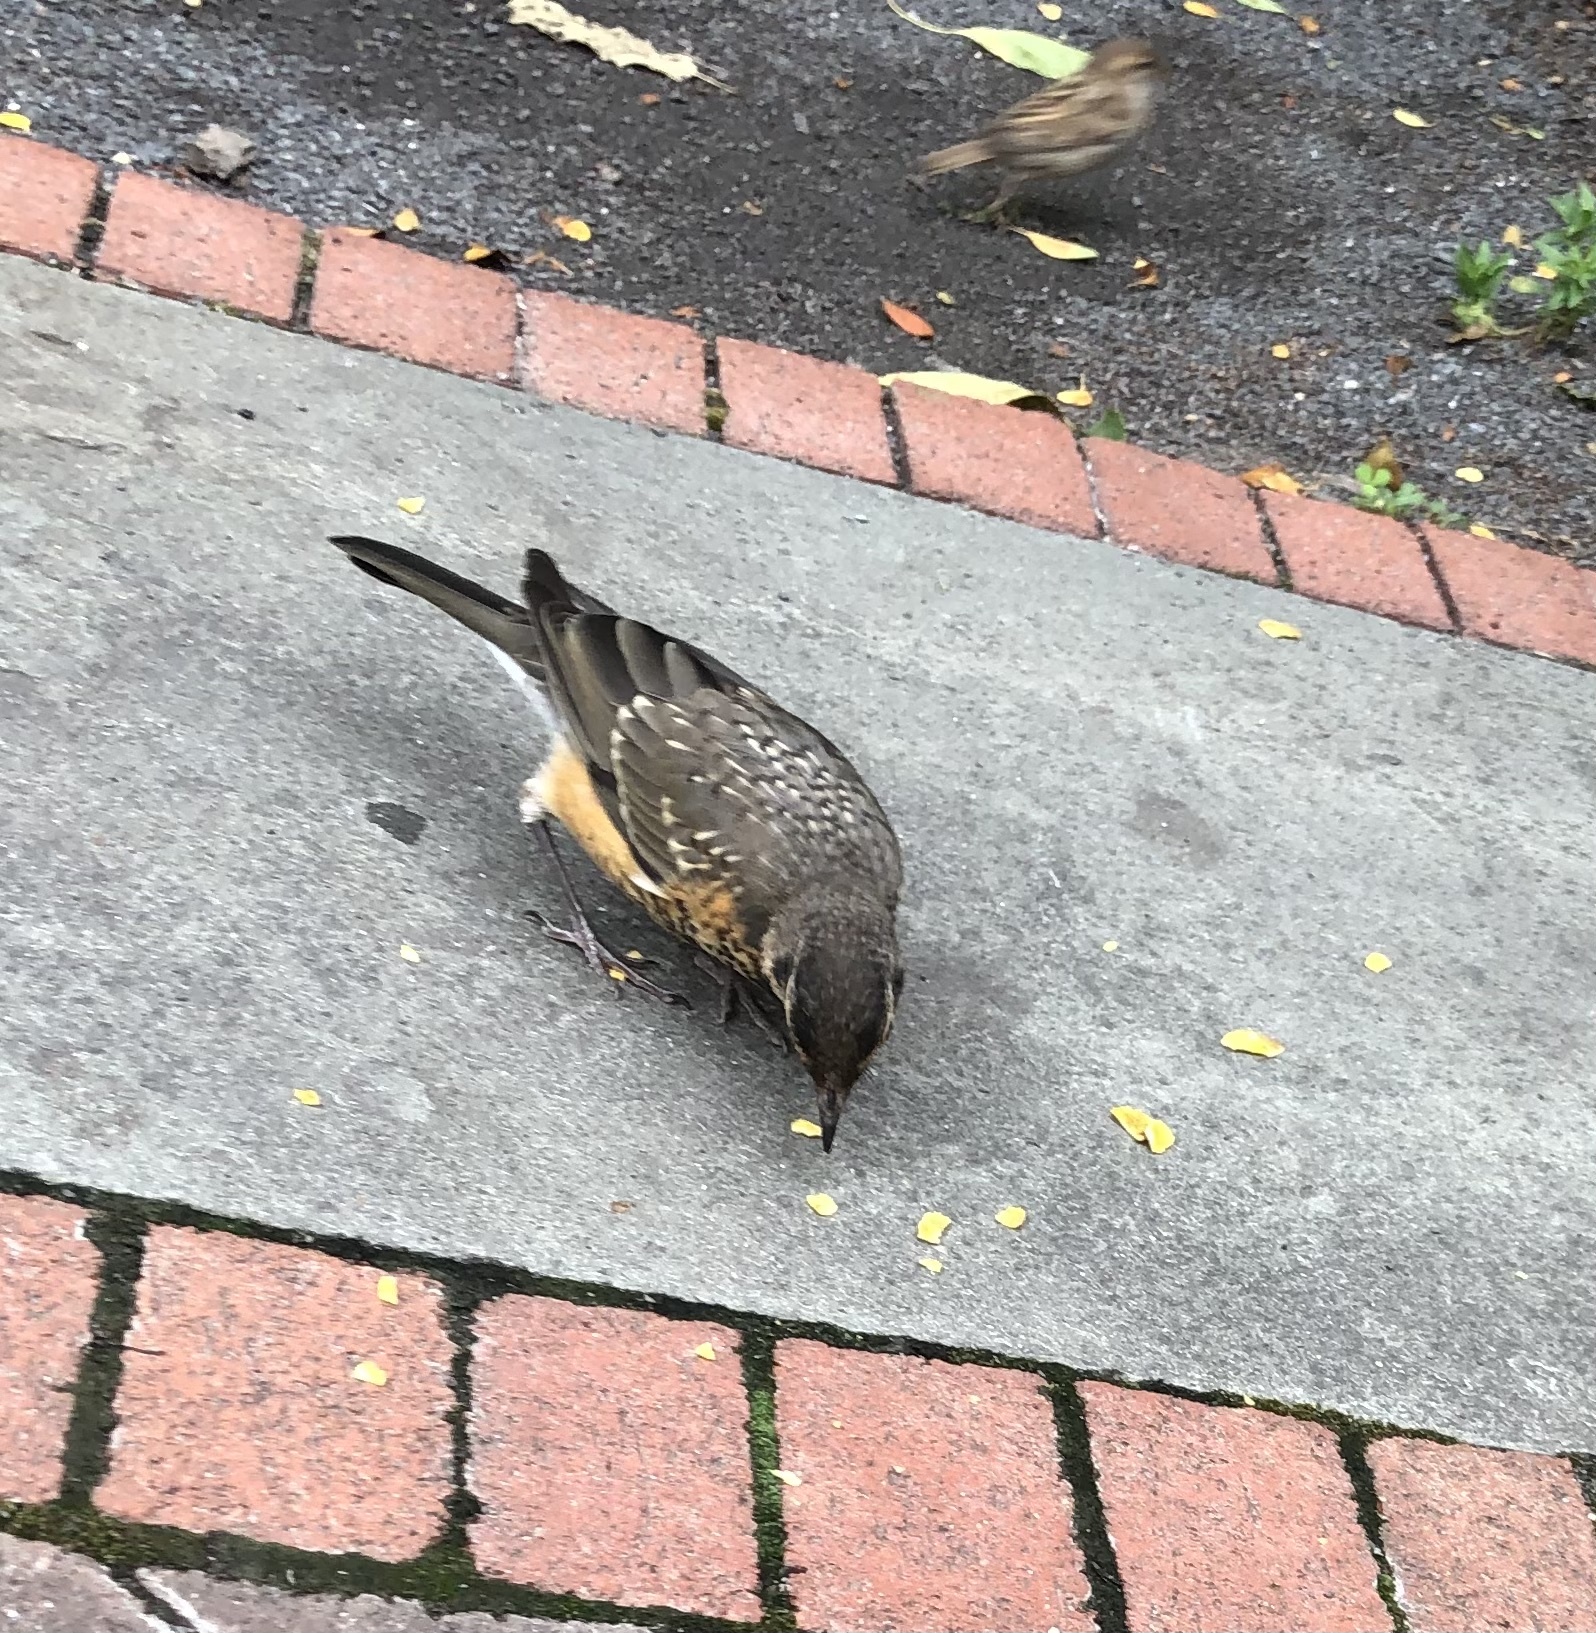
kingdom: Animalia
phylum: Chordata
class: Aves
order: Passeriformes
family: Turdidae
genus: Turdus
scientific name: Turdus migratorius
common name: American robin
